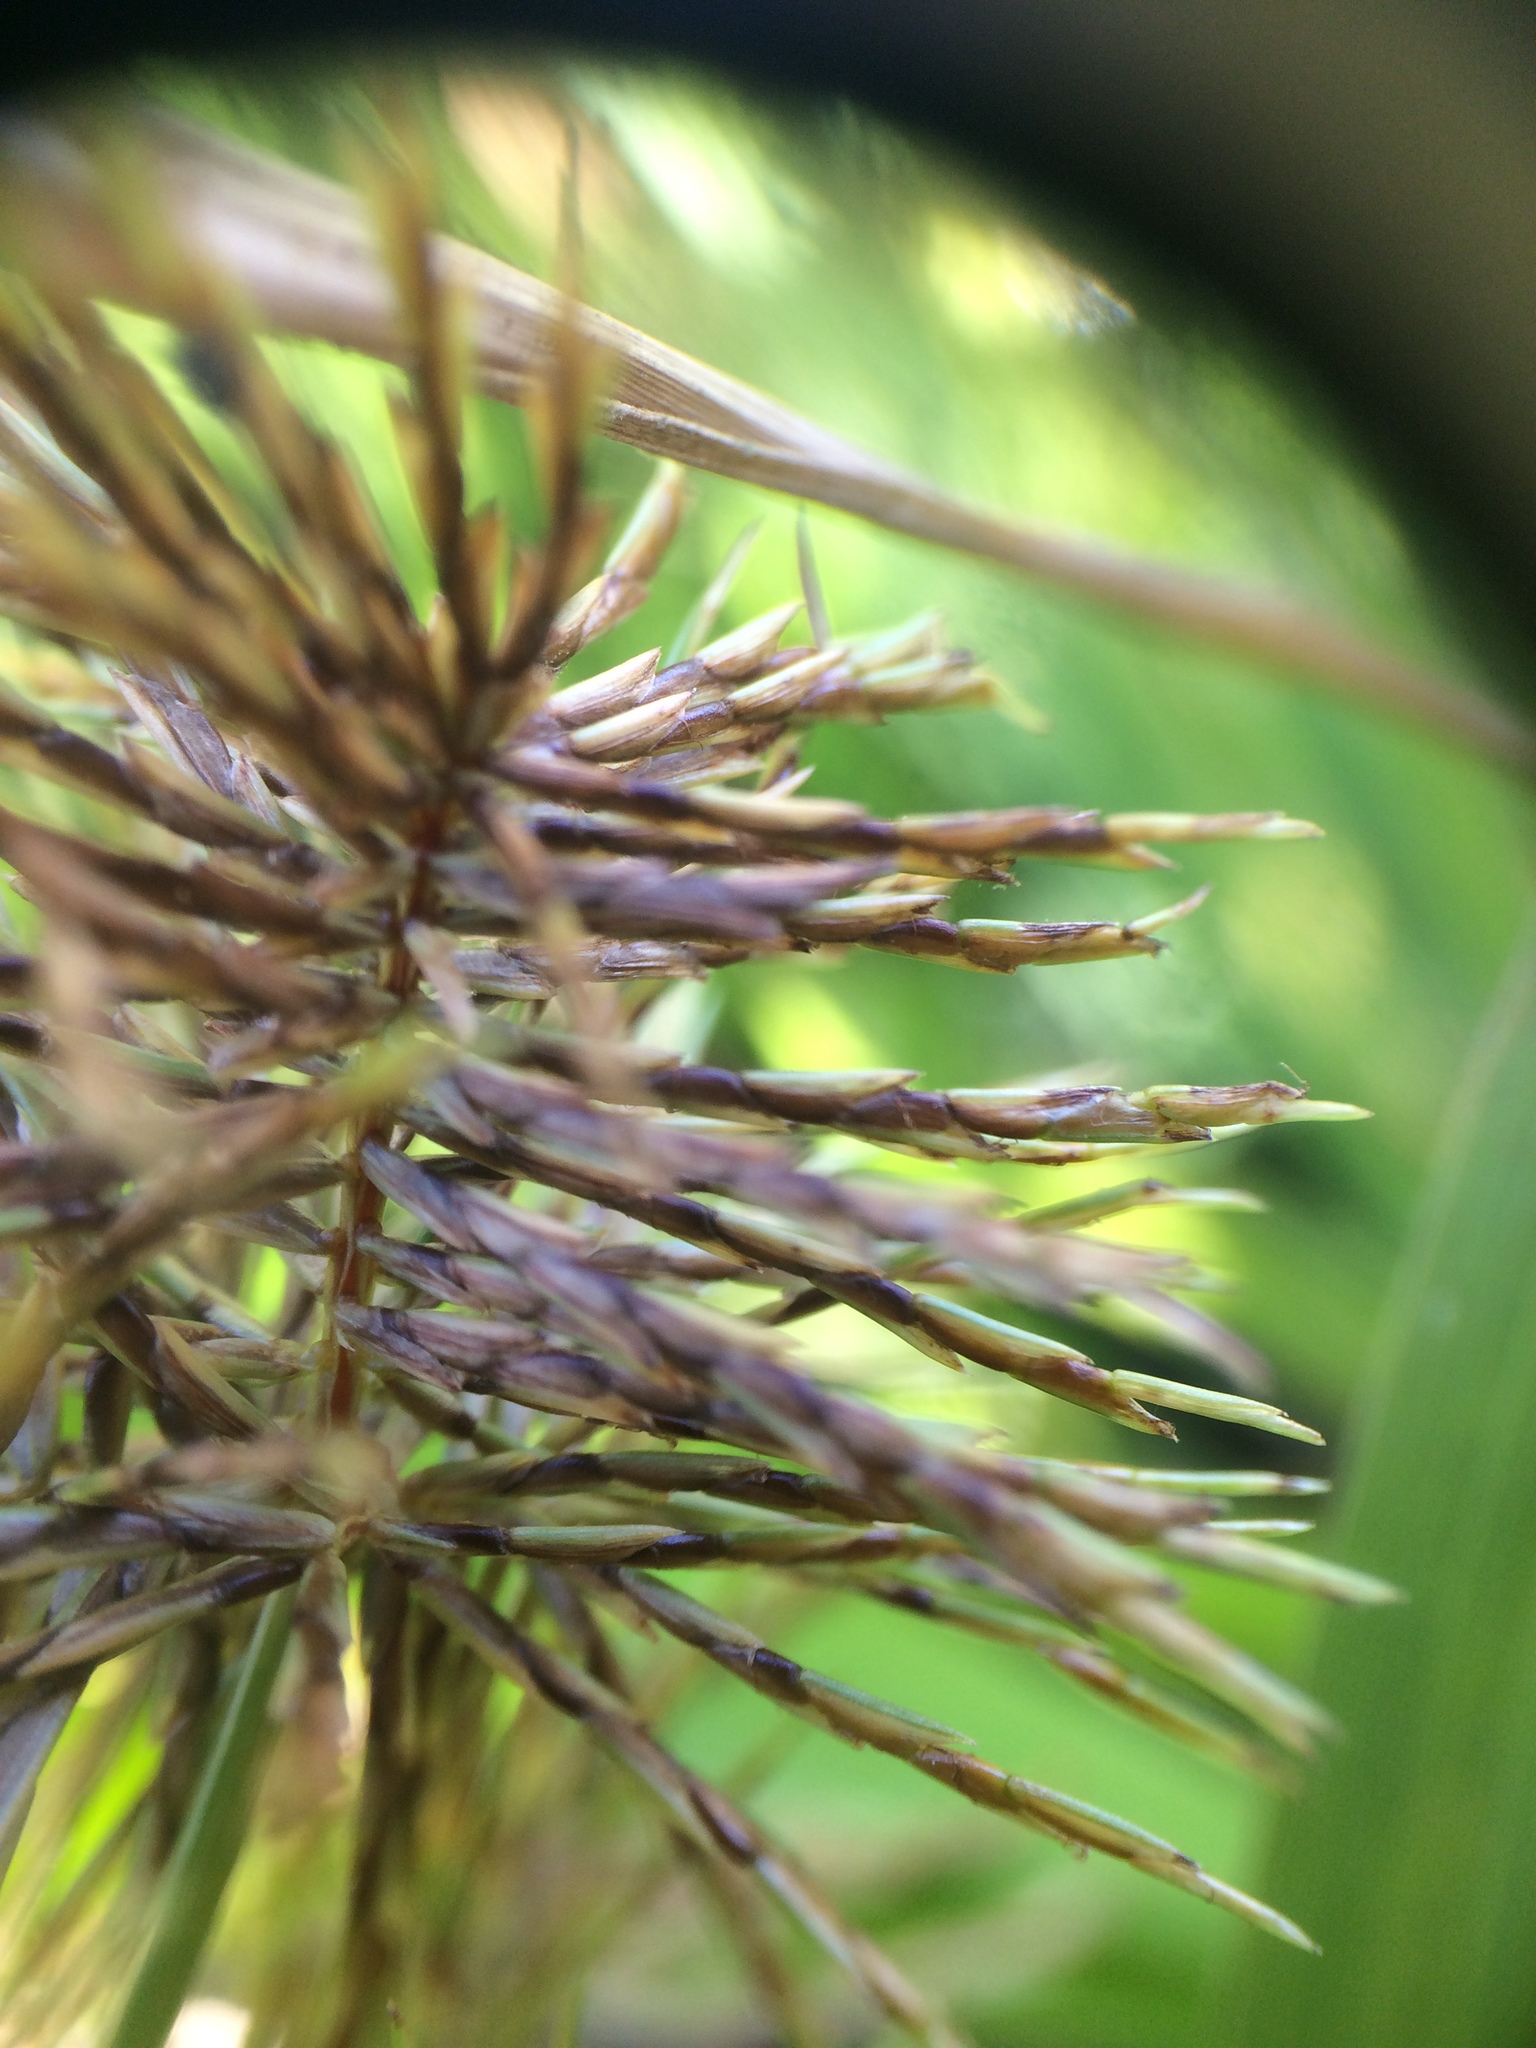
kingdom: Plantae
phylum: Tracheophyta
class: Liliopsida
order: Poales
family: Cyperaceae
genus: Cyperus
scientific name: Cyperus odoratus
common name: Fragrant flatsedge
